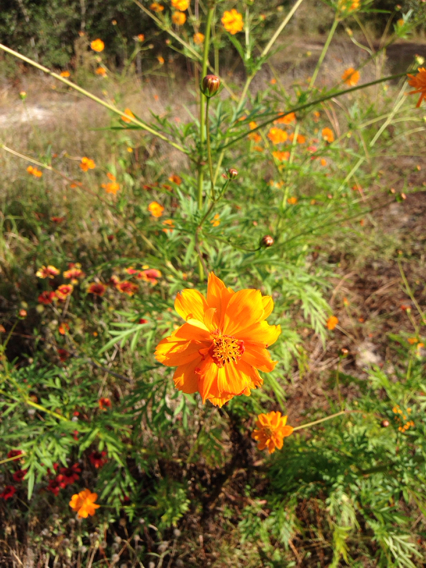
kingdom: Plantae
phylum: Tracheophyta
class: Magnoliopsida
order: Asterales
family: Asteraceae
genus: Cosmos
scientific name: Cosmos sulphureus
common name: Sulphur cosmos
